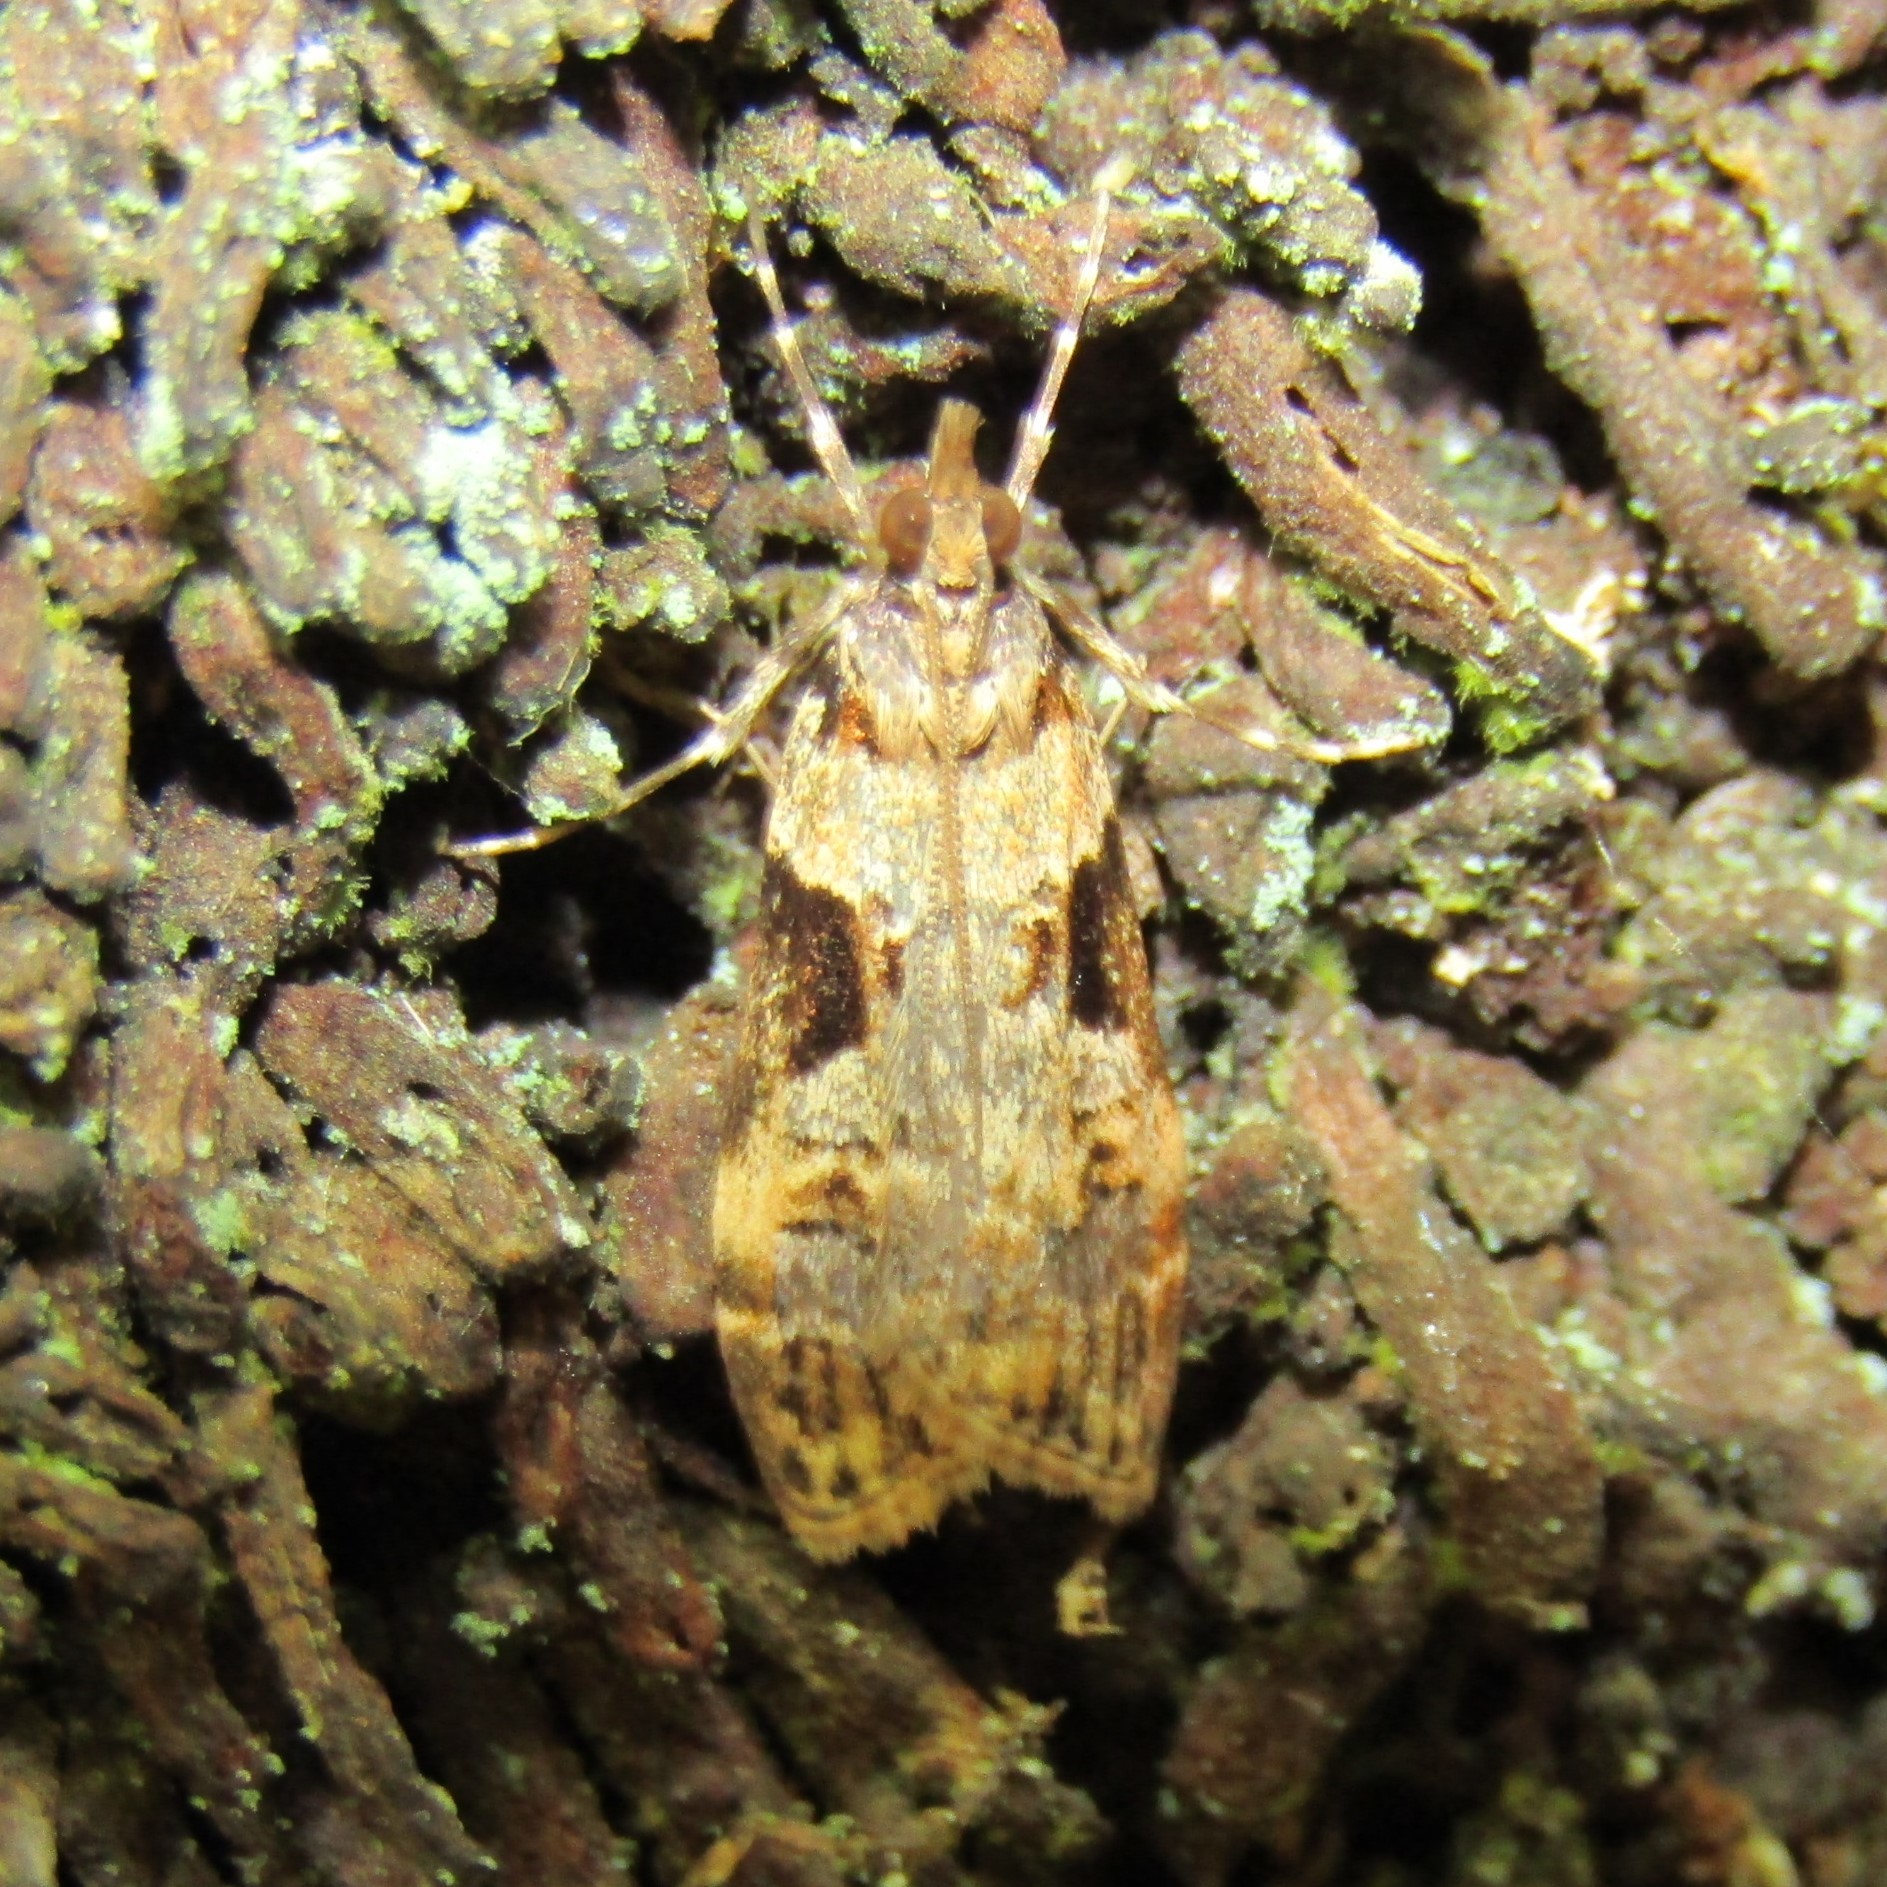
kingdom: Animalia
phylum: Arthropoda
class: Insecta
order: Lepidoptera
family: Crambidae
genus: Scoparia
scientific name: Scoparia acharis
